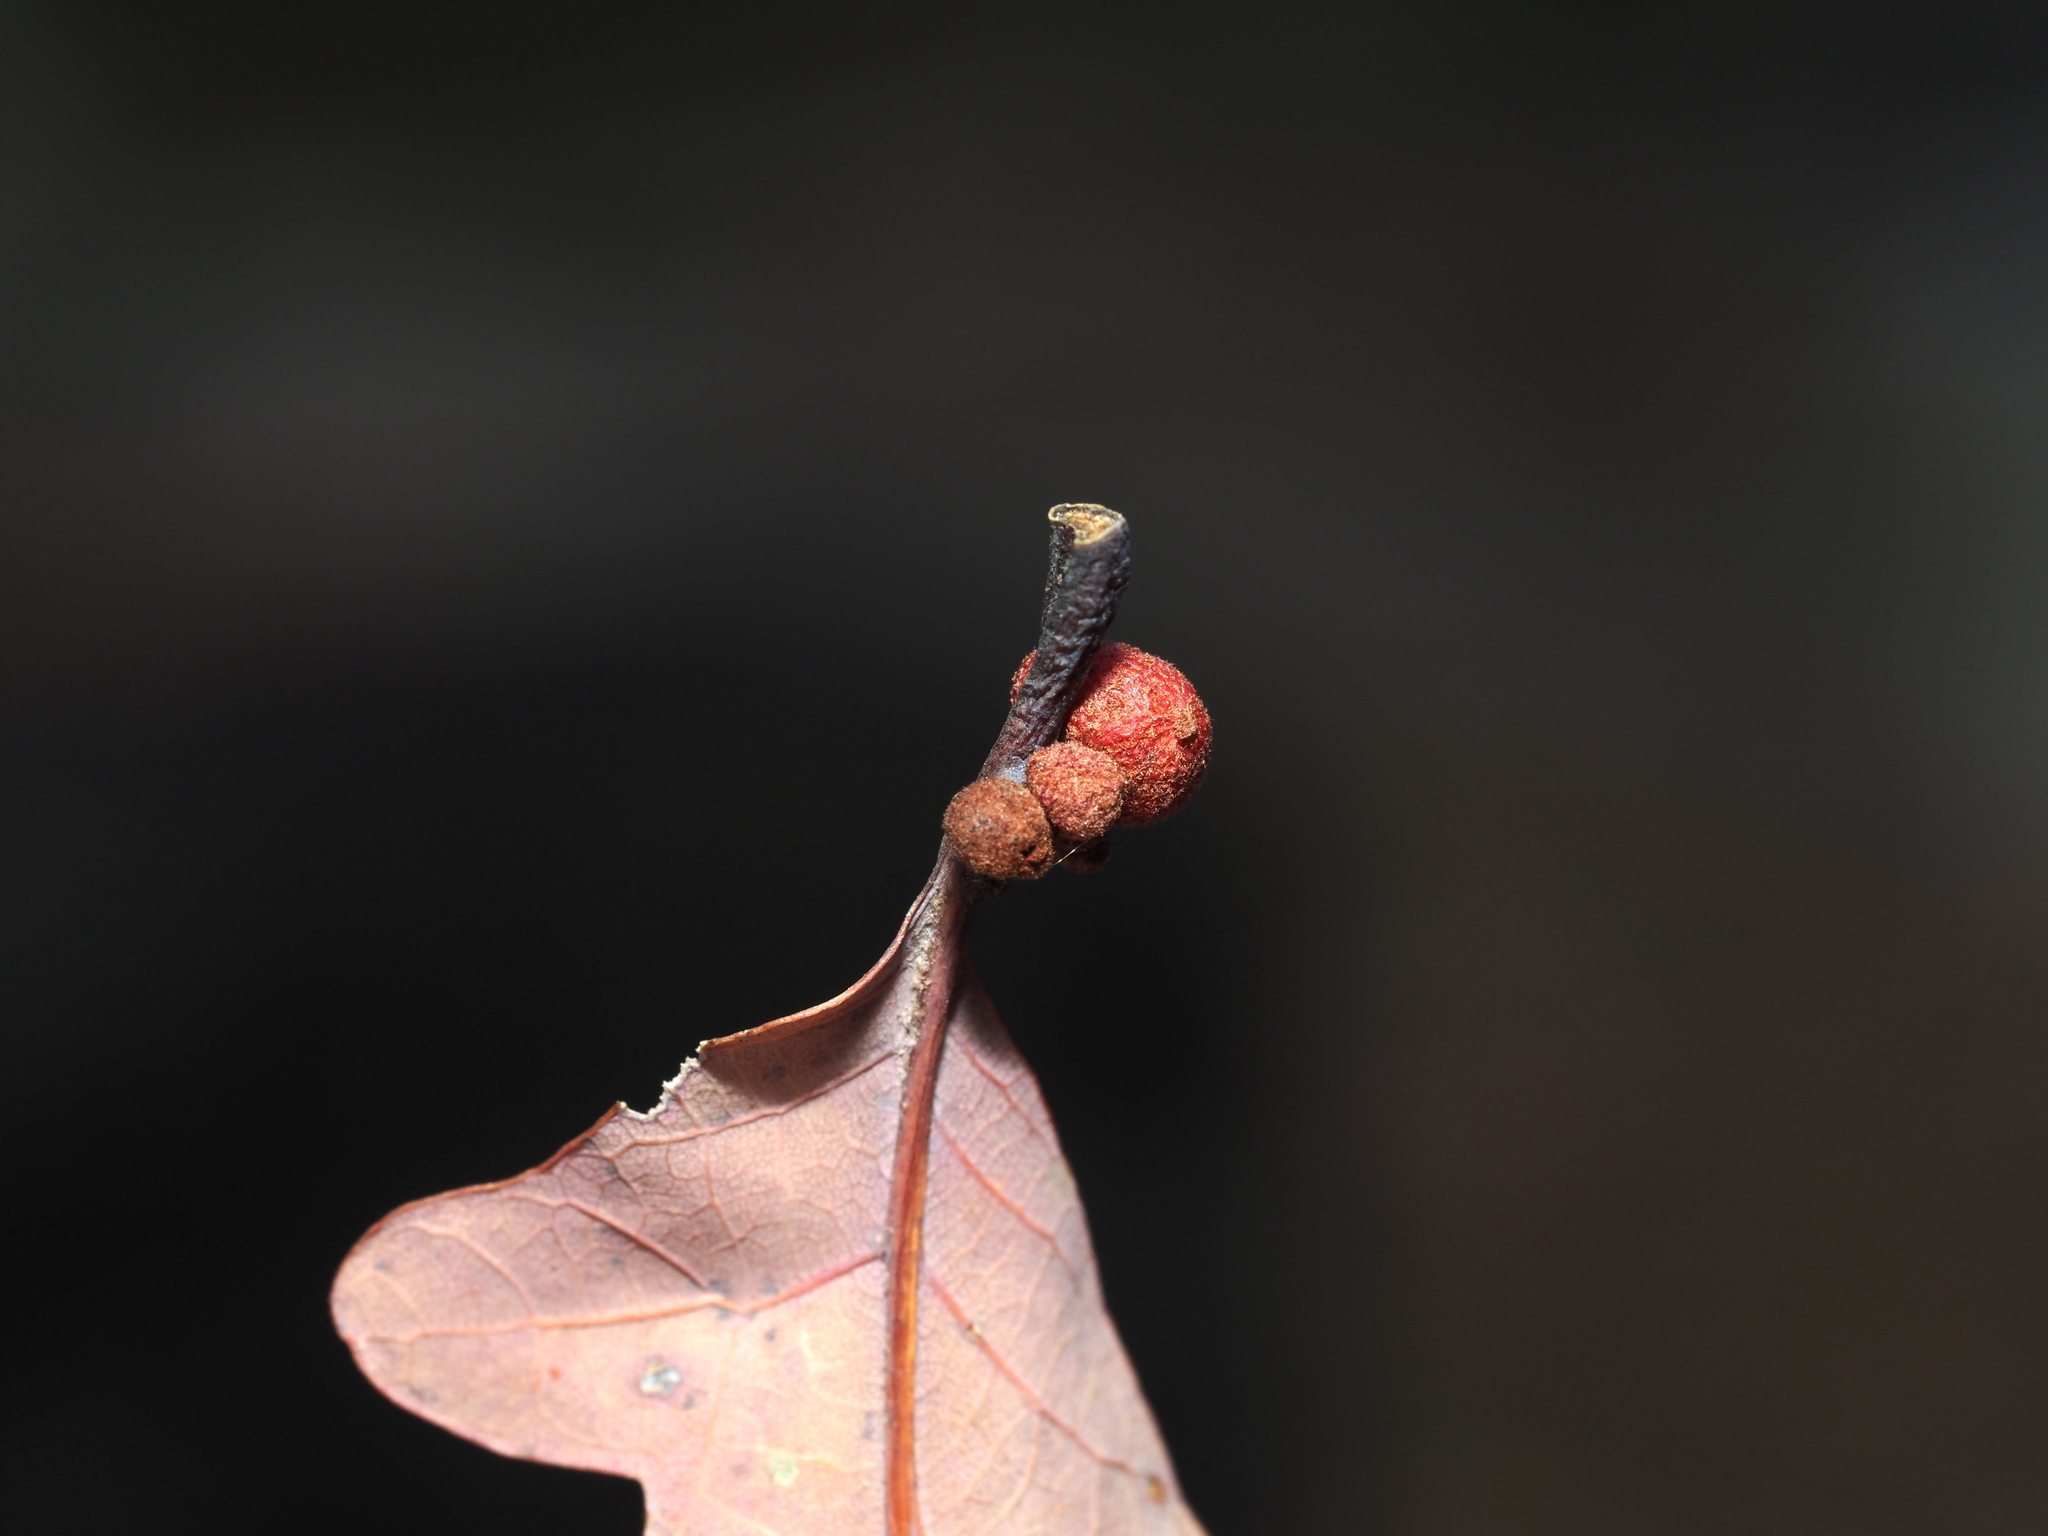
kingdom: Animalia
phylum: Arthropoda
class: Insecta
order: Hymenoptera
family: Cynipidae
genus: Andricus
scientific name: Andricus
